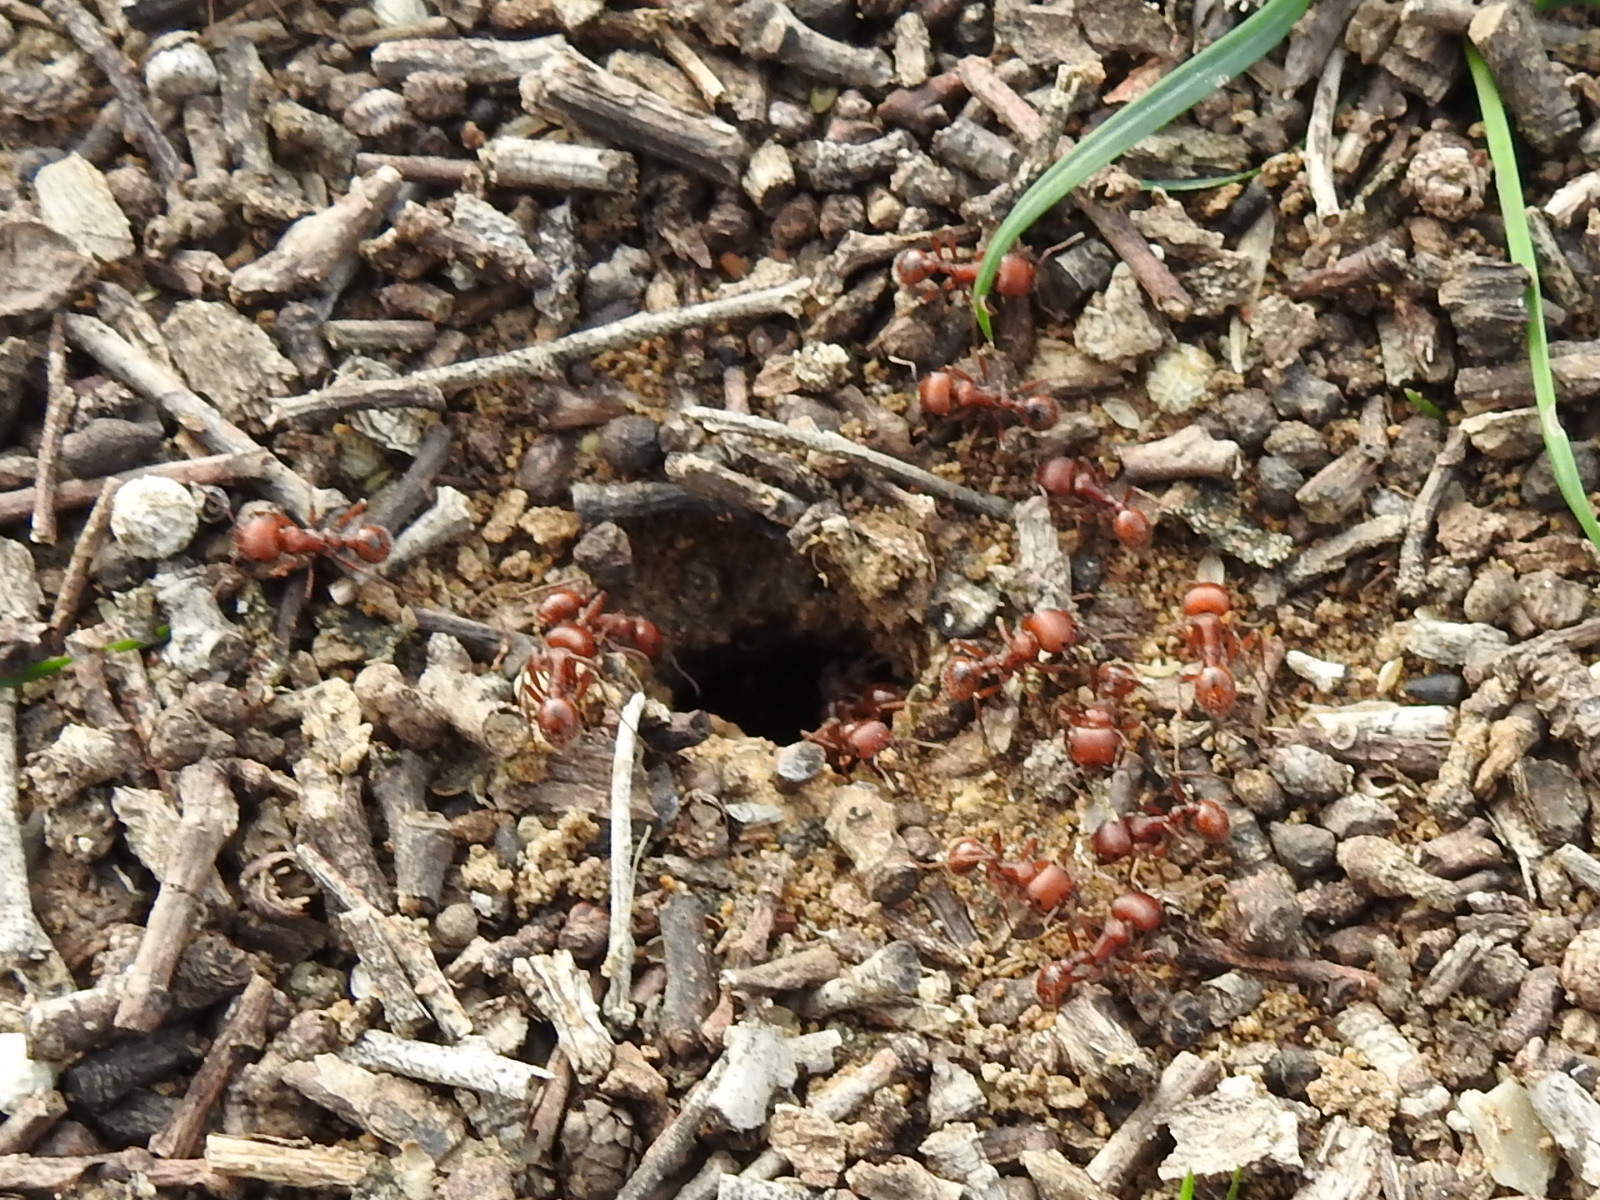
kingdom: Animalia
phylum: Arthropoda
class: Insecta
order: Hymenoptera
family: Formicidae
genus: Pogonomyrmex
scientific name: Pogonomyrmex barbatus
